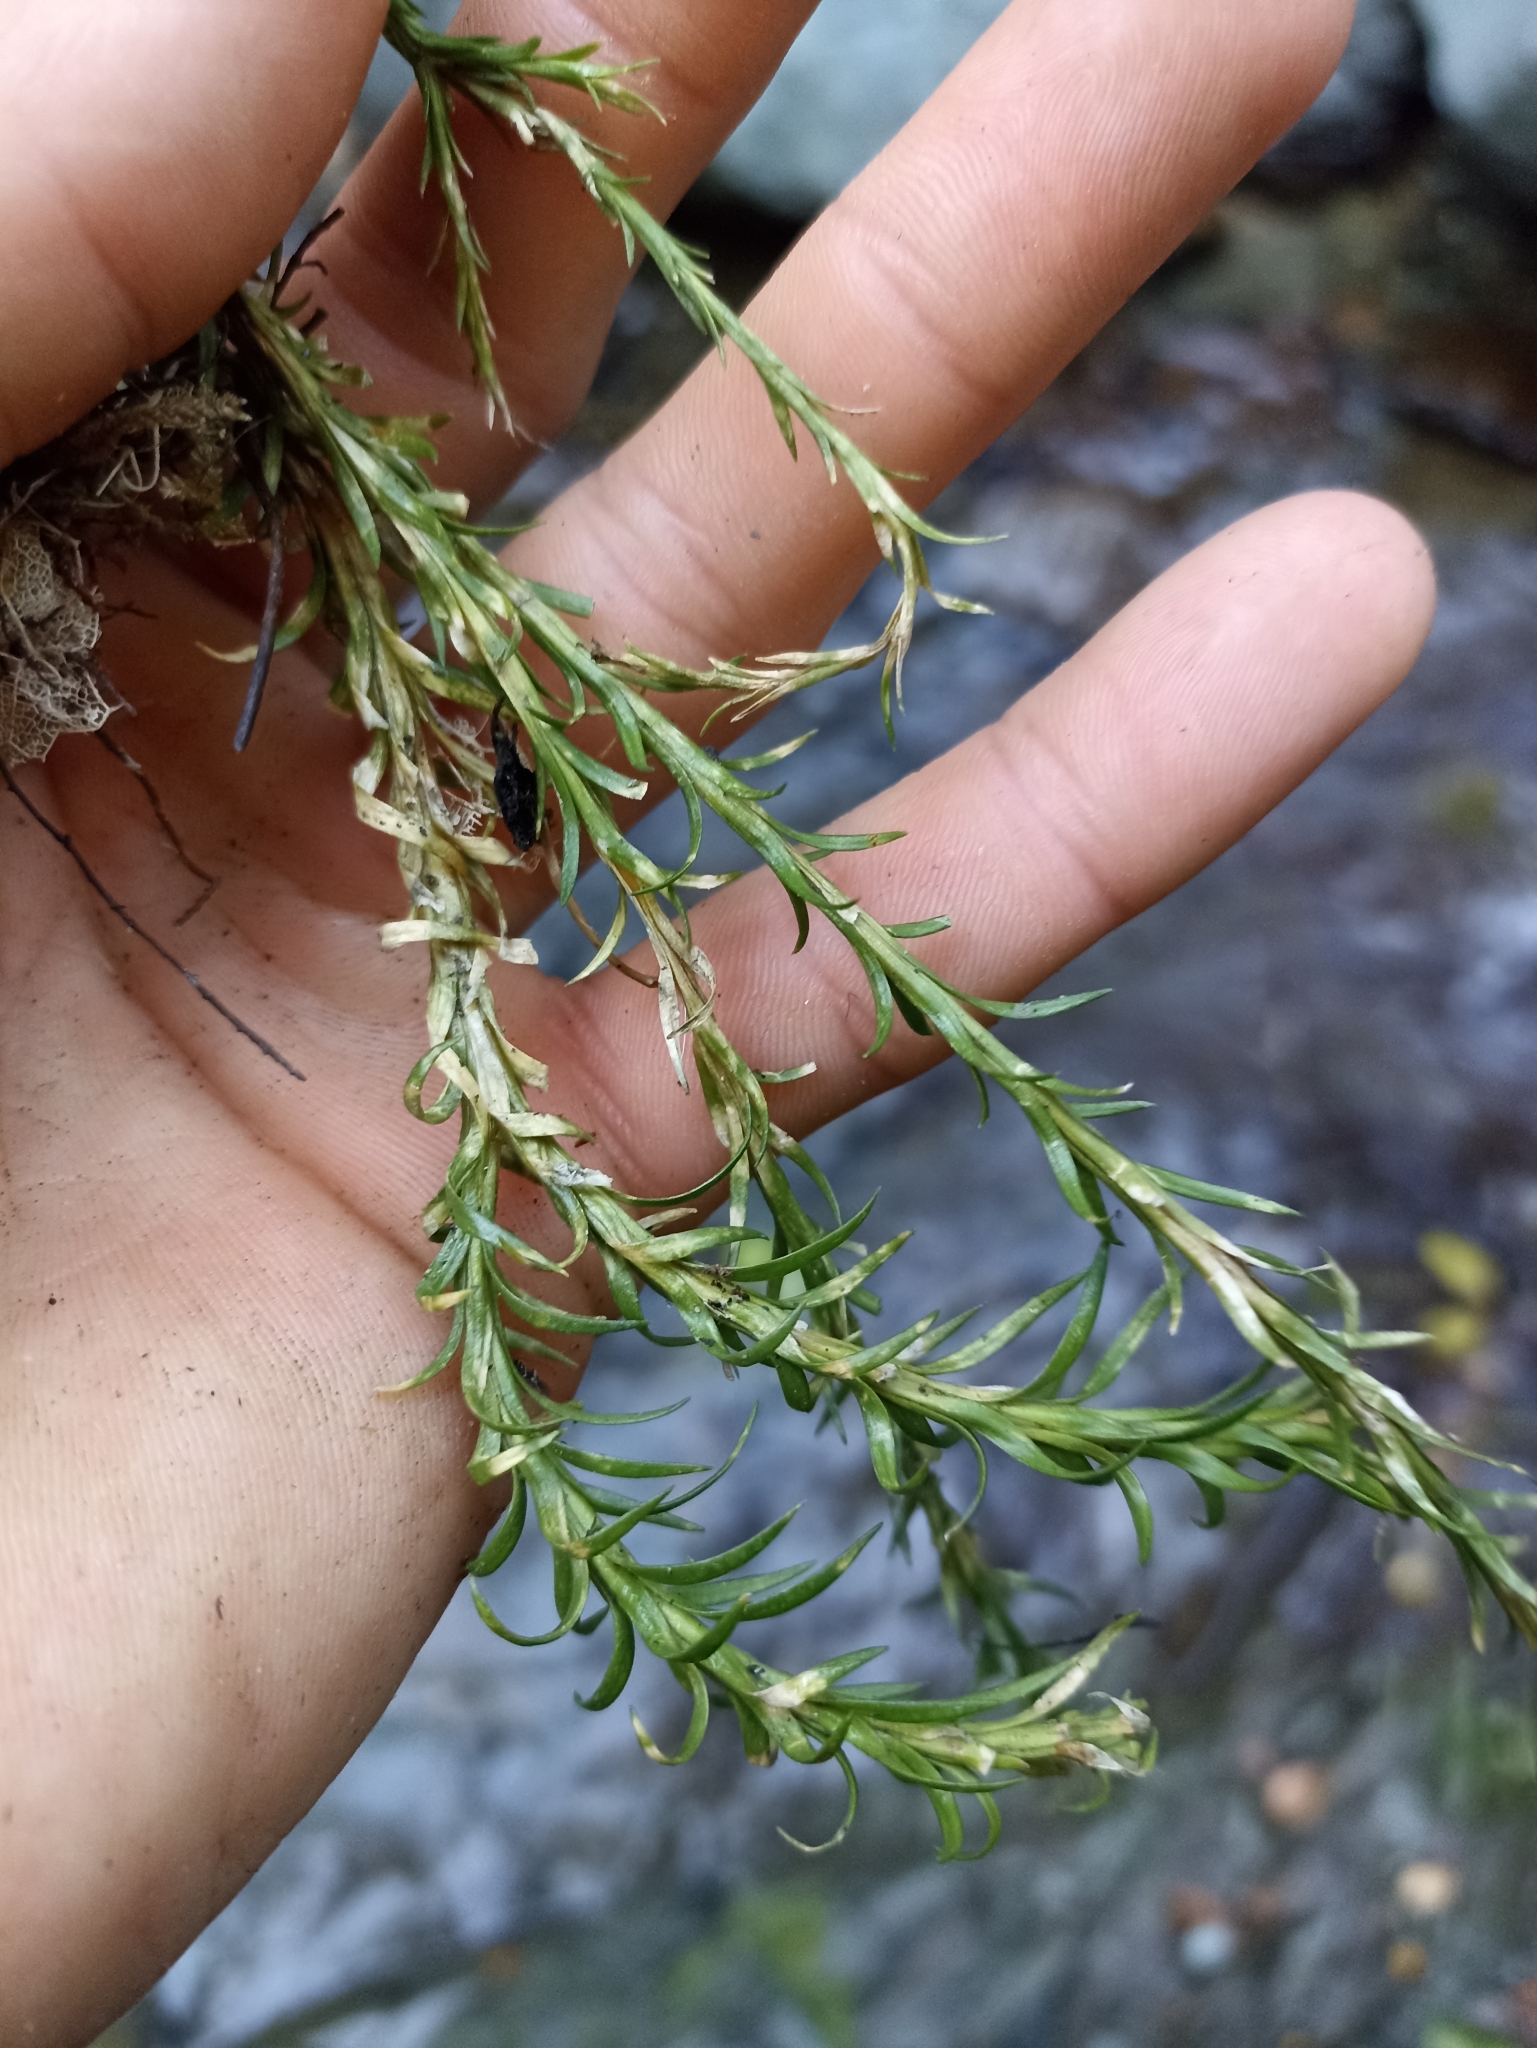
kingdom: Plantae
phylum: Tracheophyta
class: Lycopodiopsida
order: Lycopodiales
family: Lycopodiaceae
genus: Phlegmariurus
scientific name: Phlegmariurus
